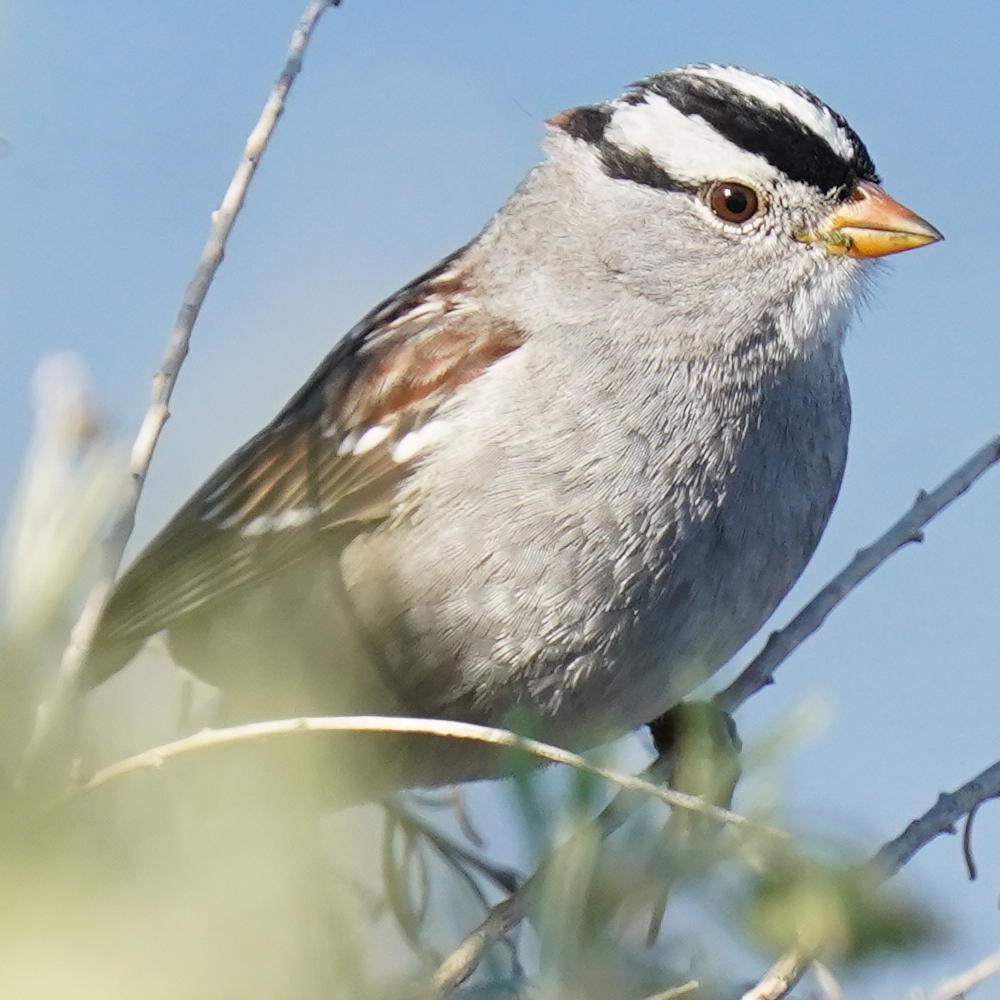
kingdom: Animalia
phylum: Chordata
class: Aves
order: Passeriformes
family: Passerellidae
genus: Zonotrichia
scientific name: Zonotrichia leucophrys
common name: White-crowned sparrow
